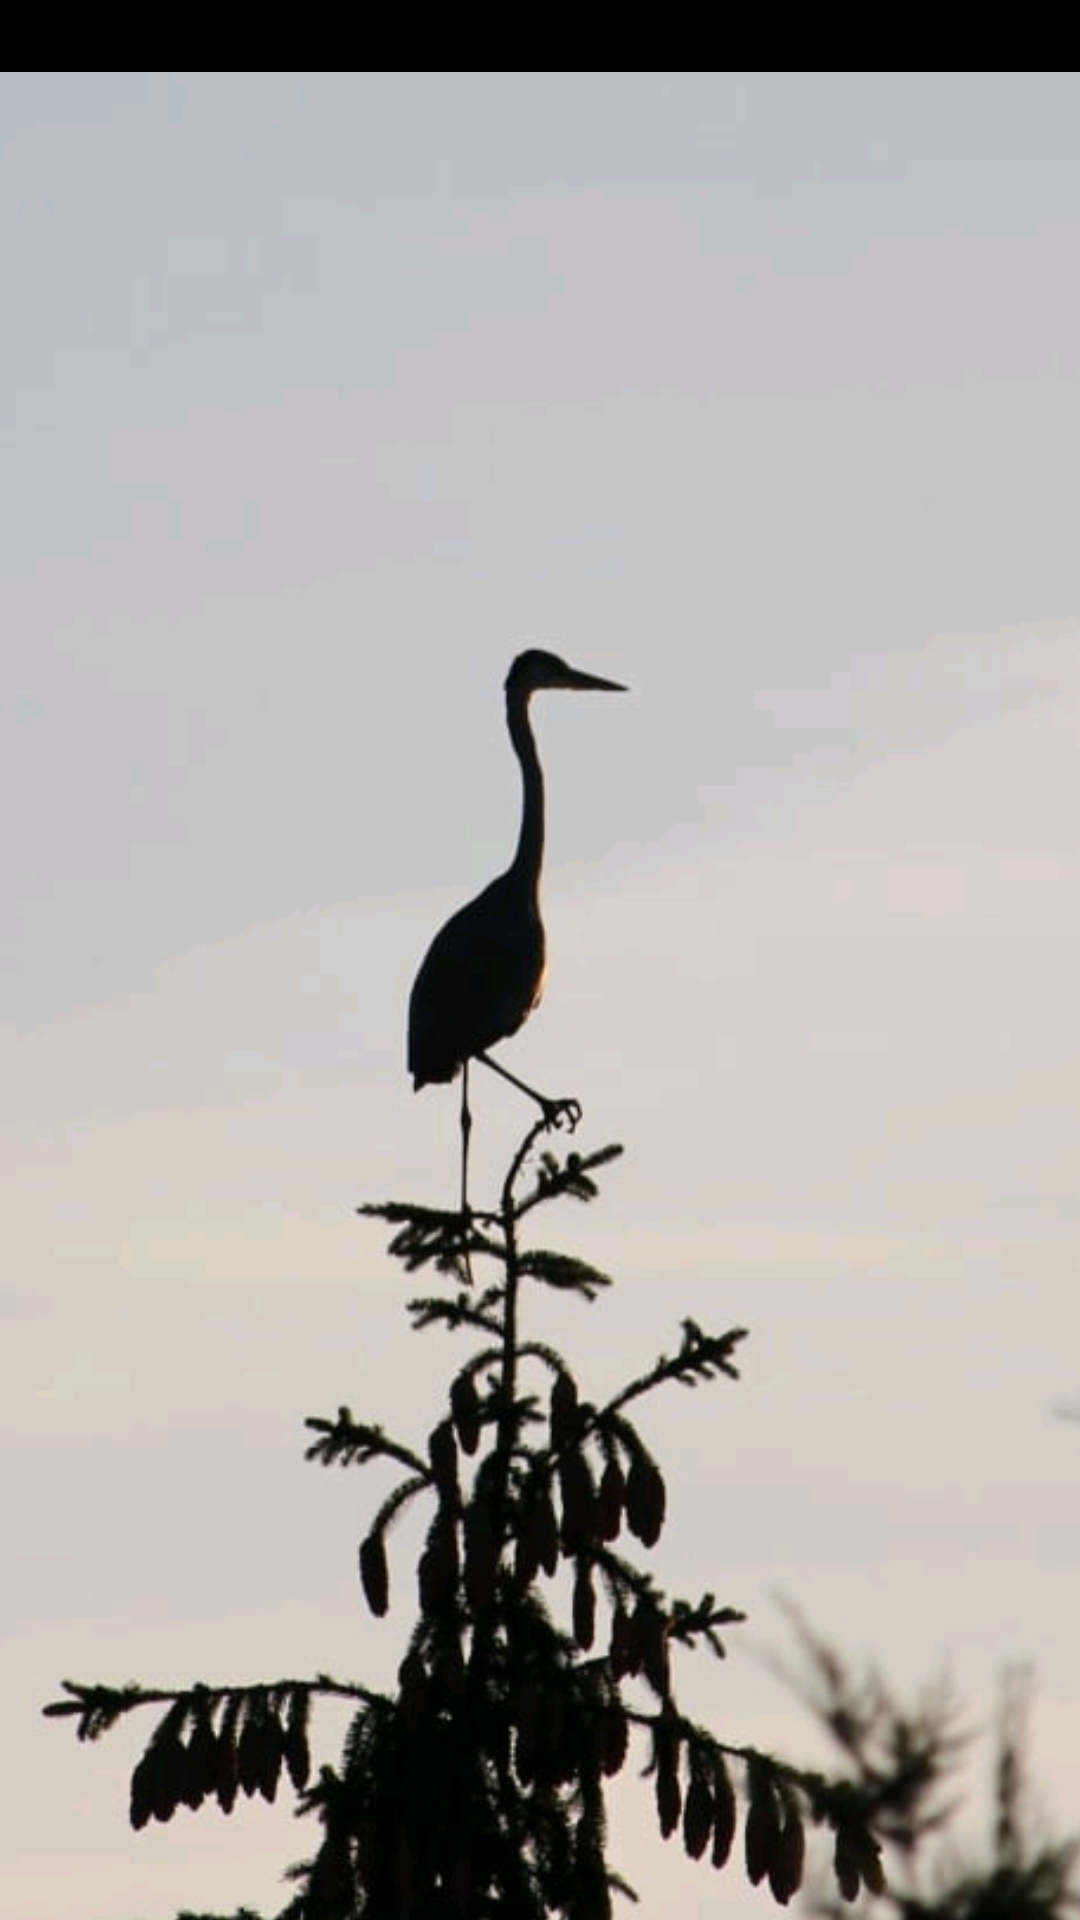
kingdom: Animalia
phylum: Chordata
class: Aves
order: Pelecaniformes
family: Ardeidae
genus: Ardea
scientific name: Ardea cinerea
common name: Grey heron
